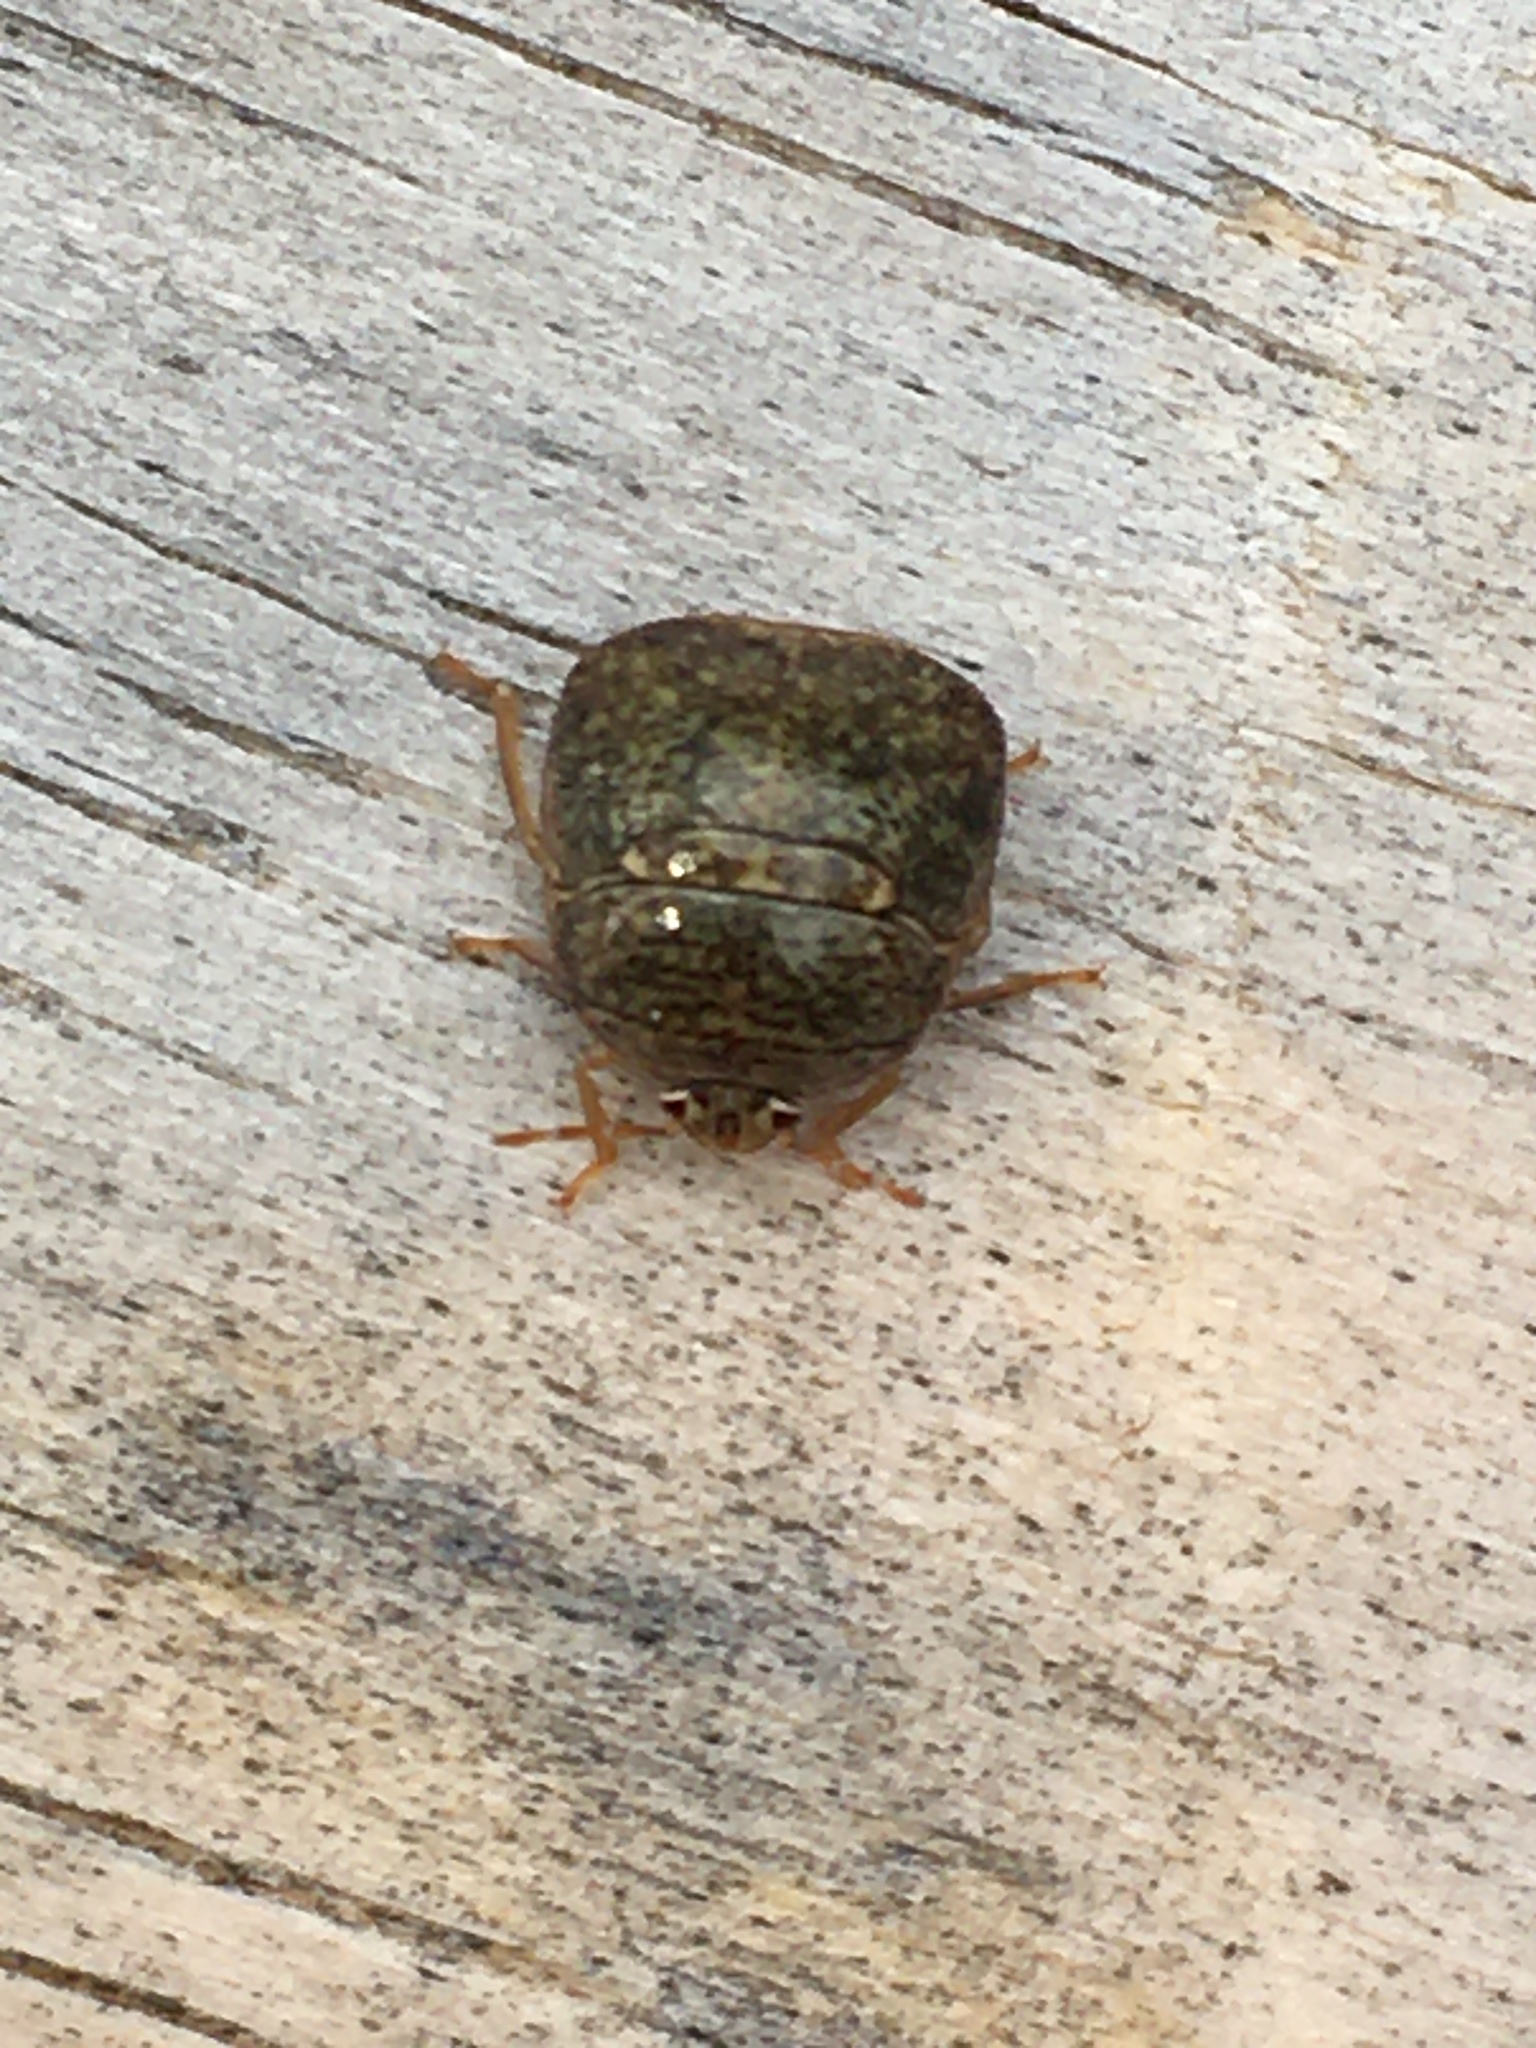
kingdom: Animalia
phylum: Arthropoda
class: Insecta
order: Hemiptera
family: Plataspidae
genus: Megacopta
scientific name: Megacopta cribraria
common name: Bean plataspid
